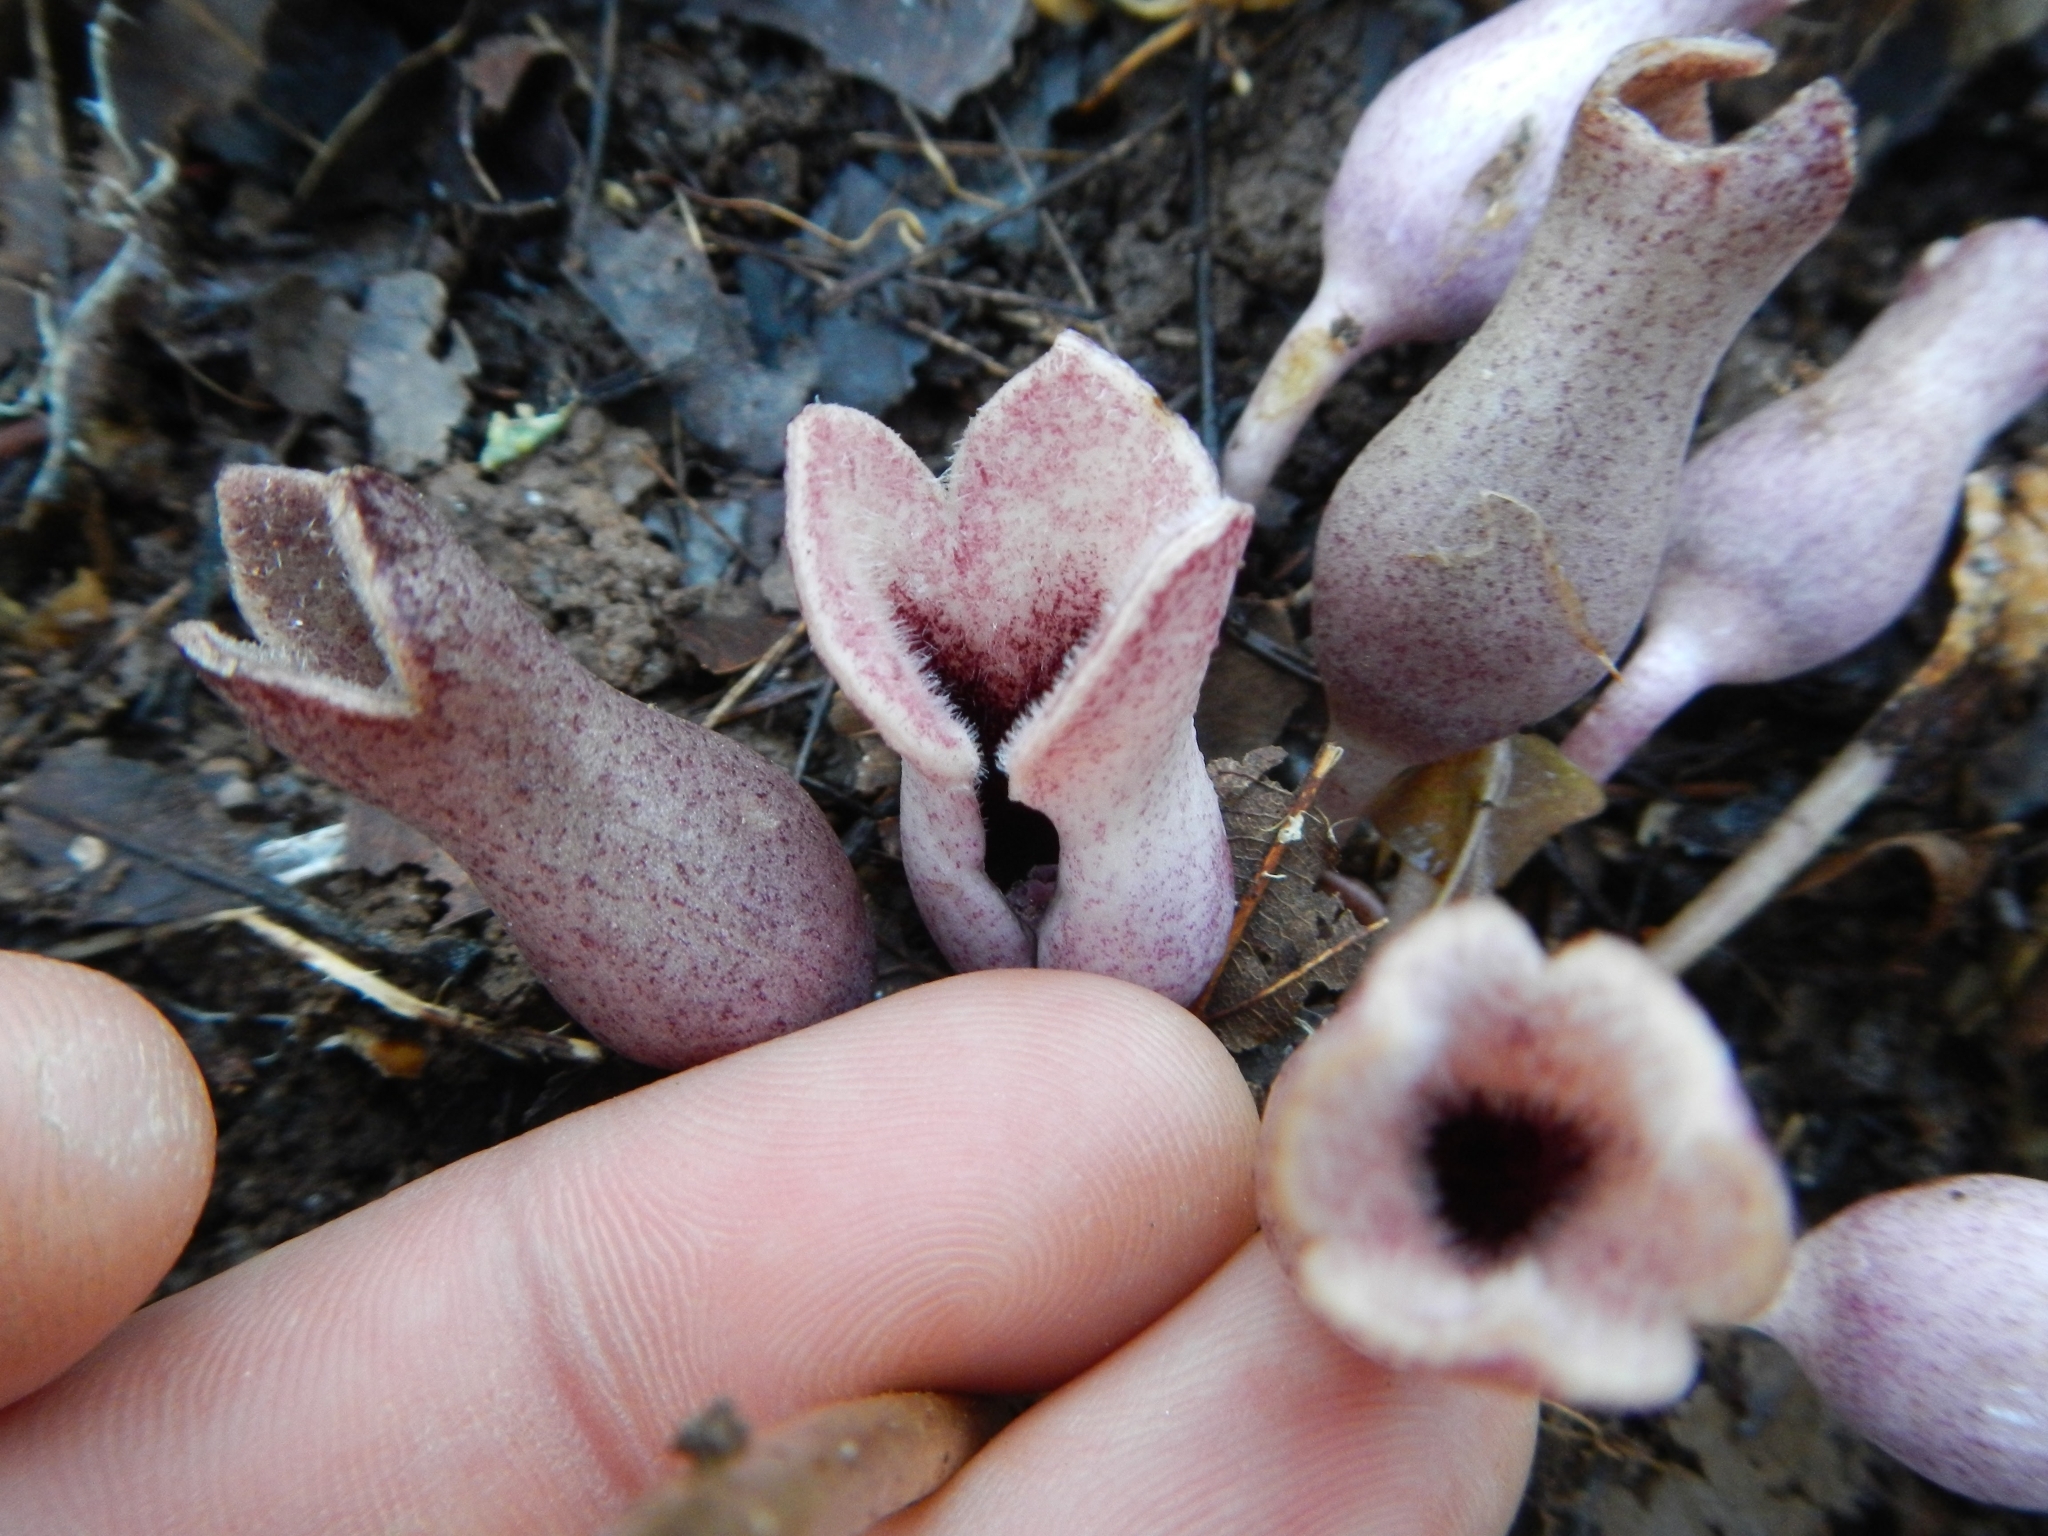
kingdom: Plantae
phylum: Tracheophyta
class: Magnoliopsida
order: Piperales
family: Aristolochiaceae
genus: Hexastylis
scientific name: Hexastylis arifolia
